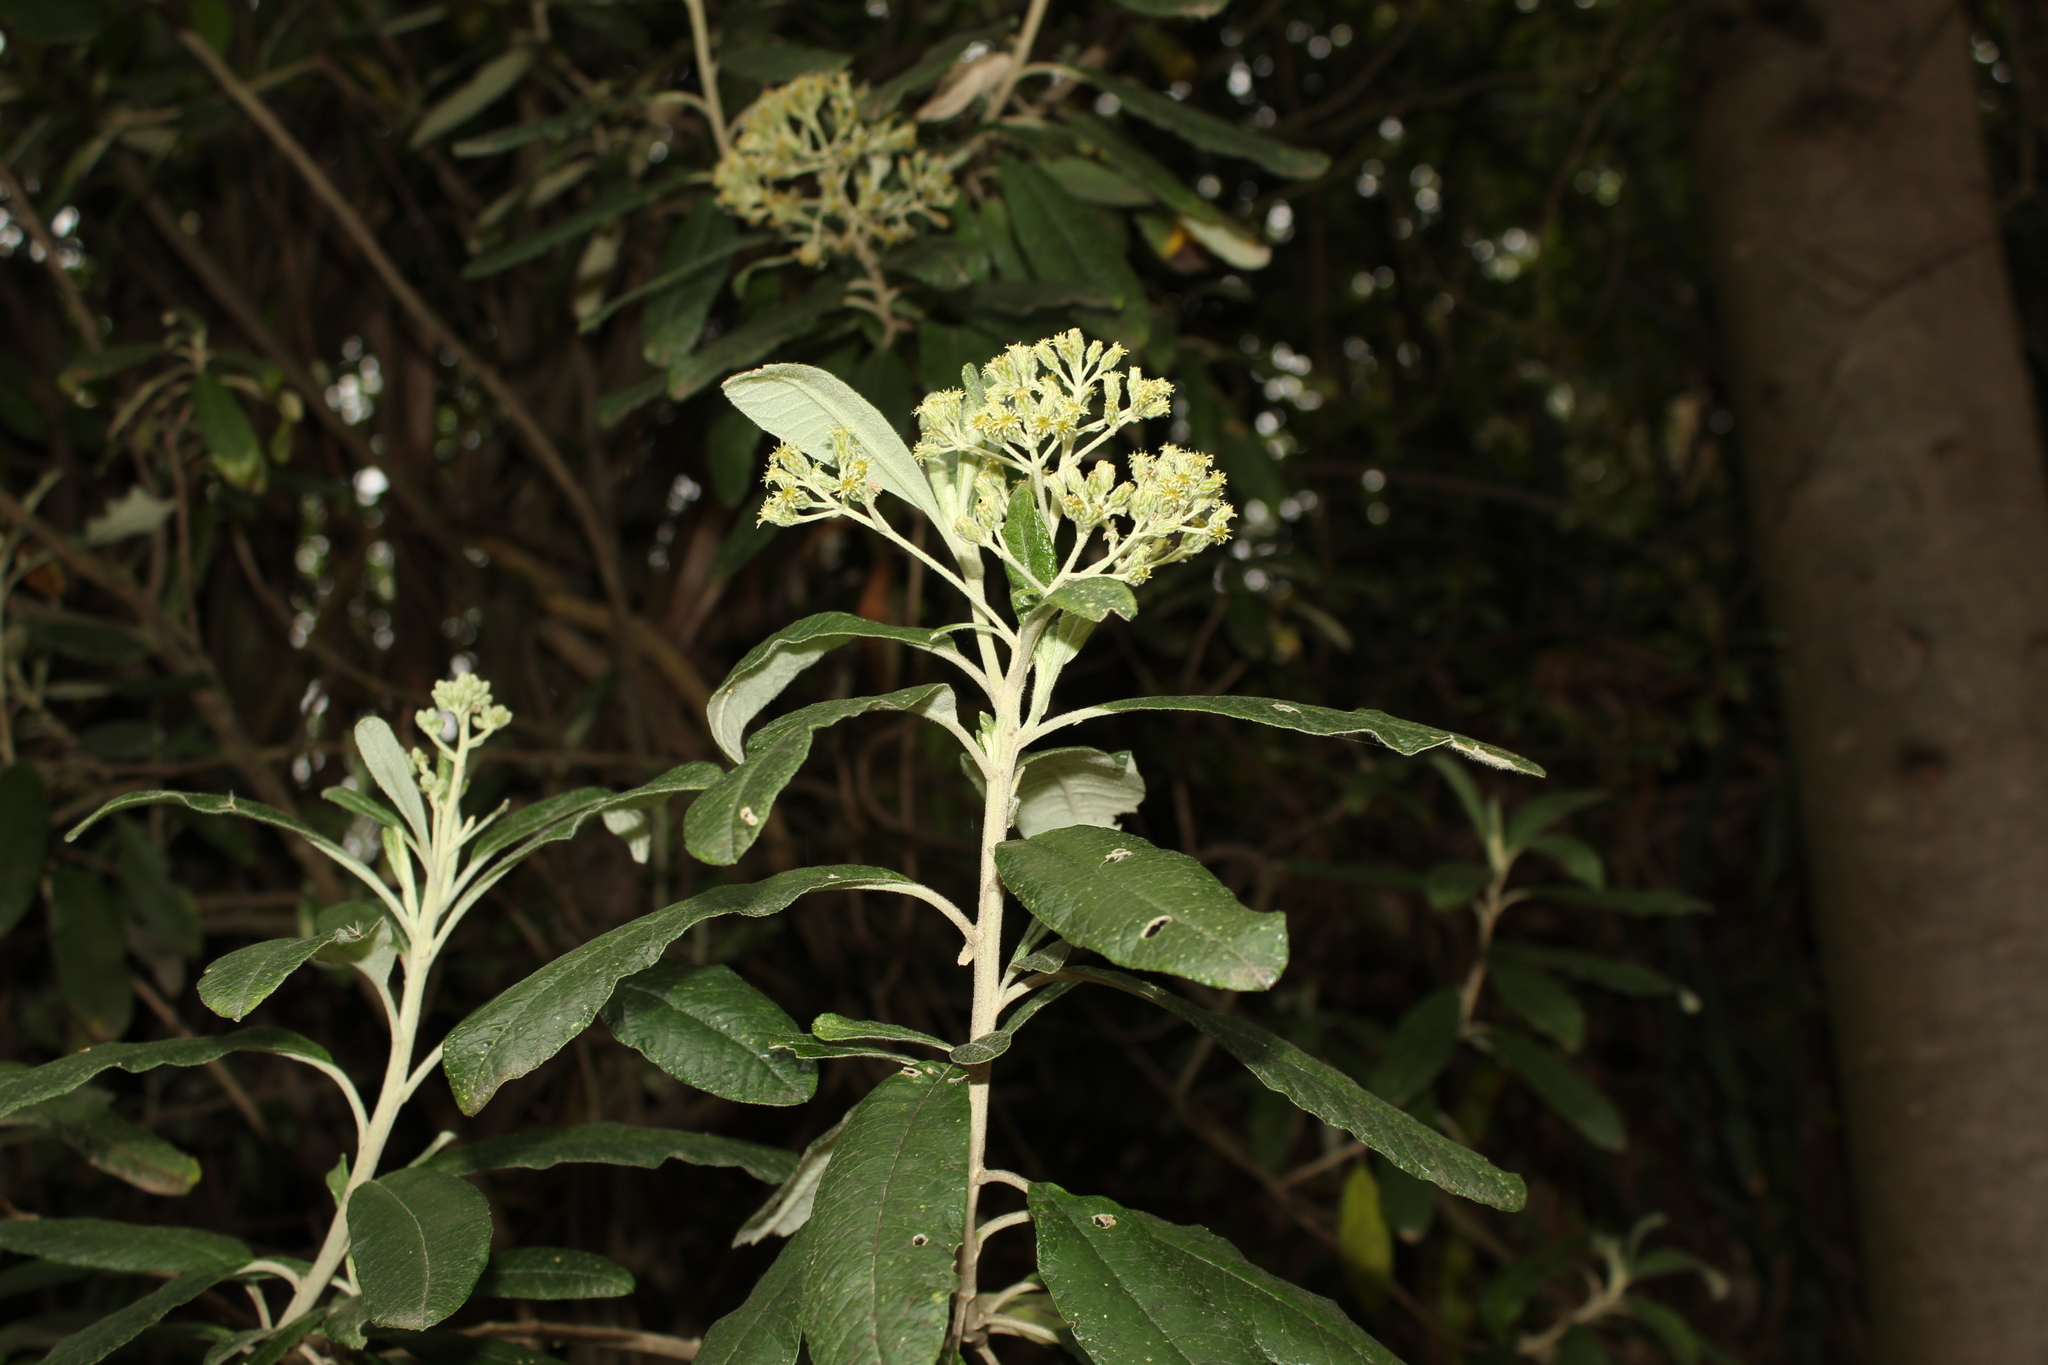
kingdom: Plantae
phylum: Tracheophyta
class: Magnoliopsida
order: Asterales
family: Asteraceae
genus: Linochilus
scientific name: Linochilus tenuifolius
